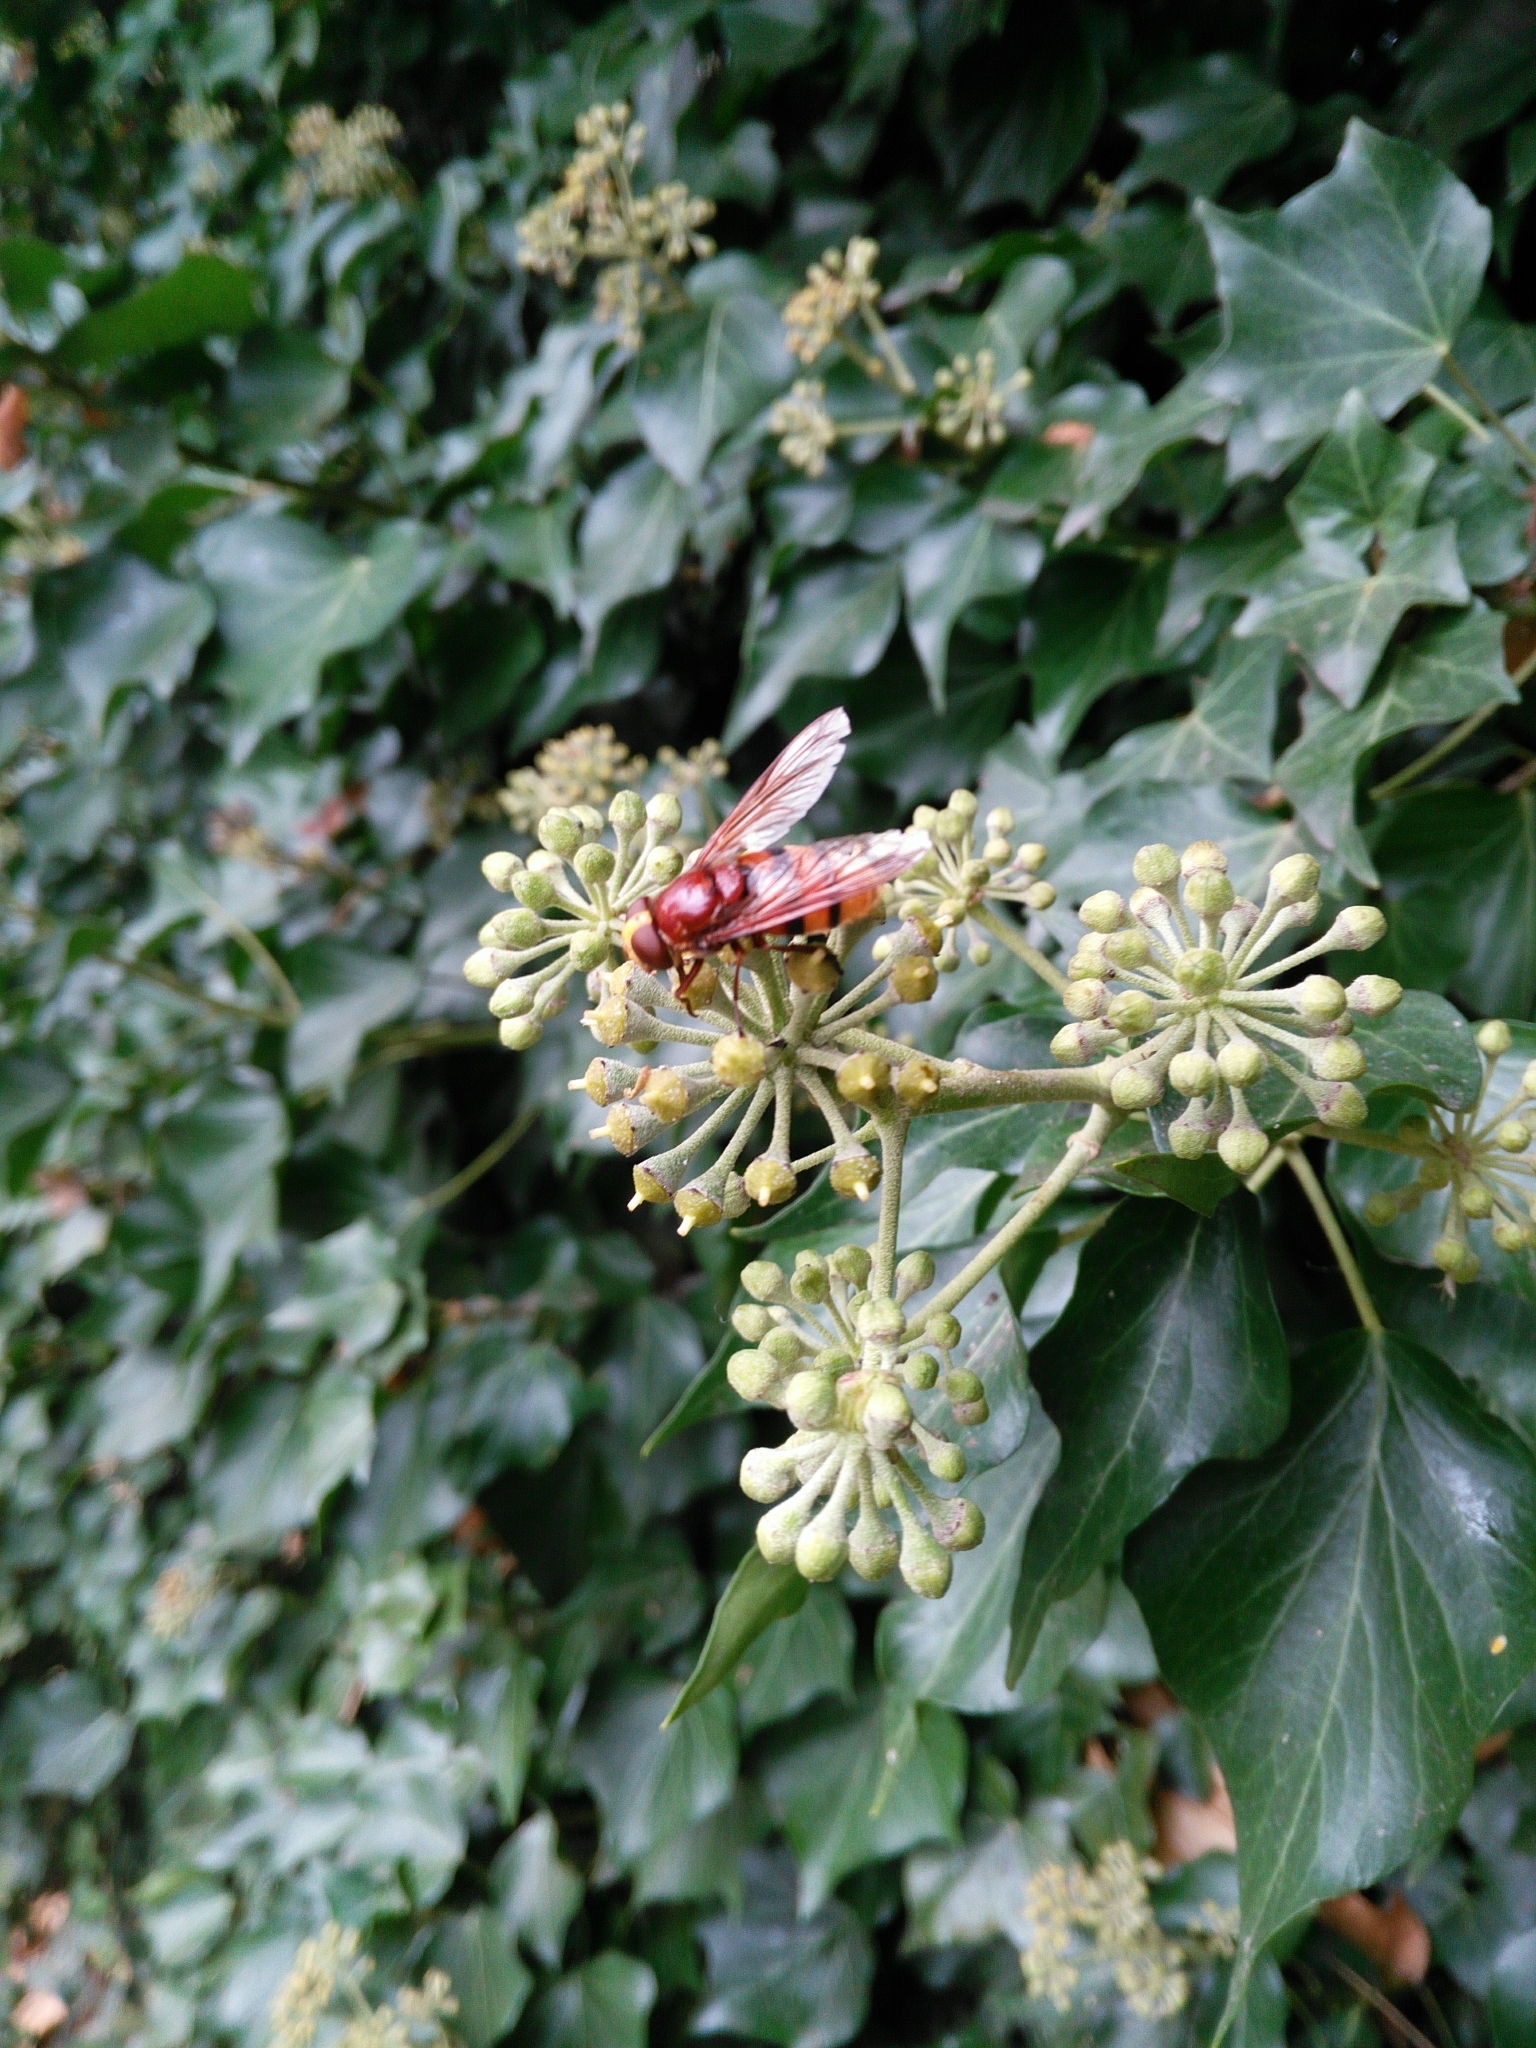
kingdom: Animalia
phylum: Arthropoda
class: Insecta
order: Diptera
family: Syrphidae
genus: Volucella
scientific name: Volucella zonaria
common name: Hornet hoverfly
